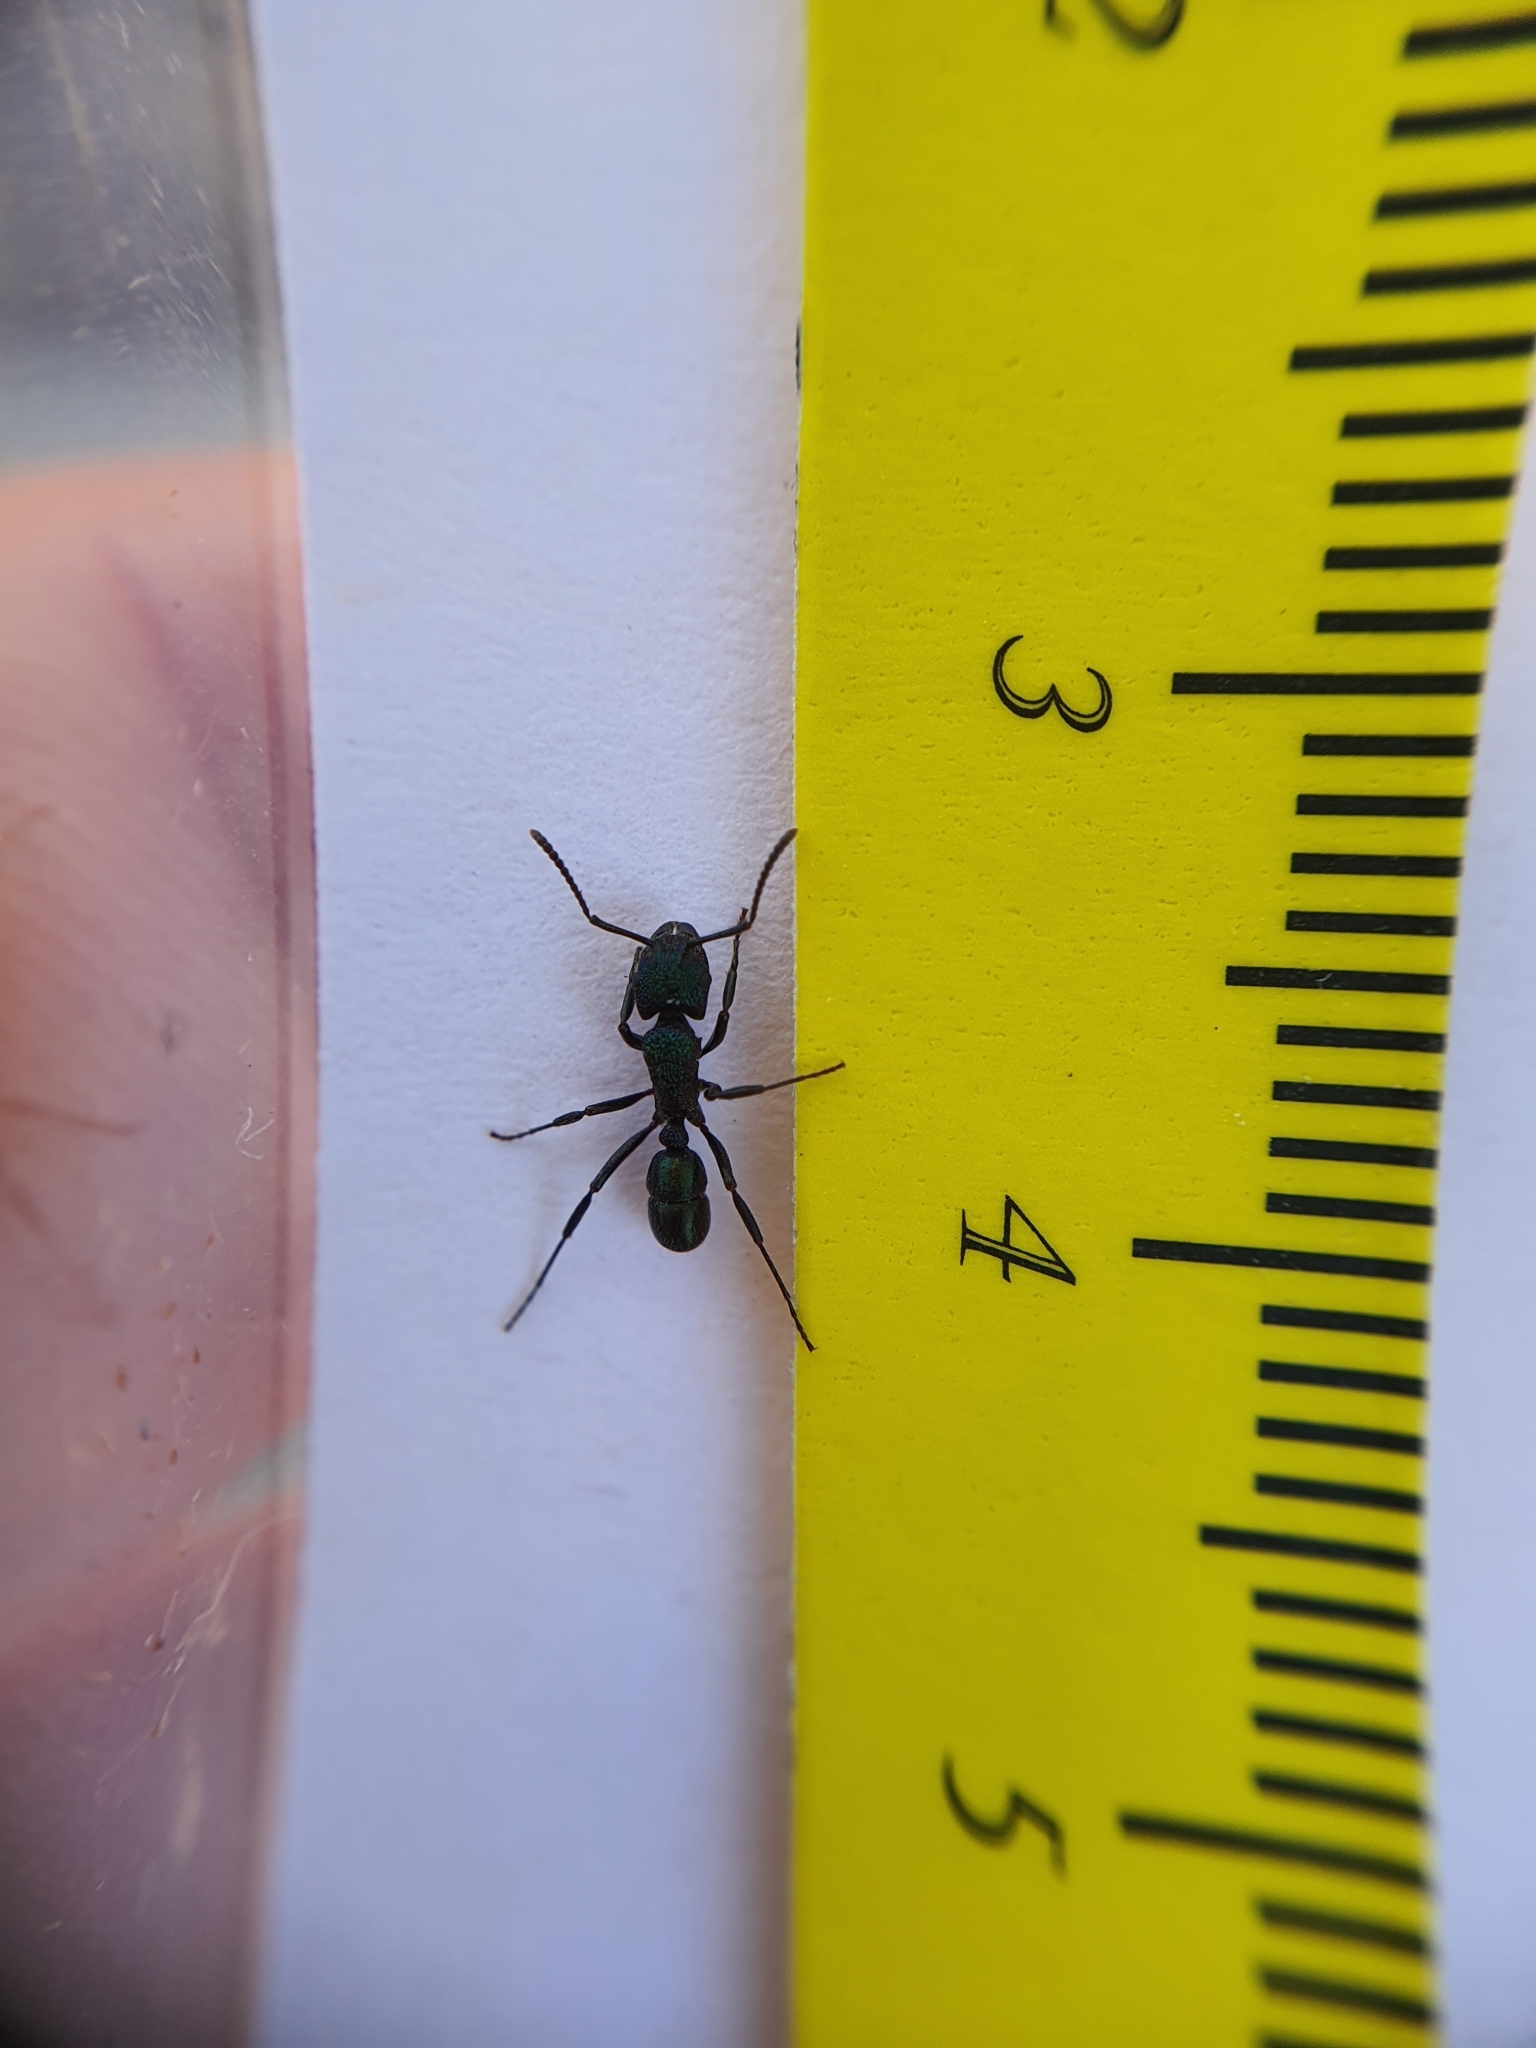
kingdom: Animalia
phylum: Arthropoda
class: Insecta
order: Hymenoptera
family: Formicidae
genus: Rhytidoponera
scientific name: Rhytidoponera metallica
